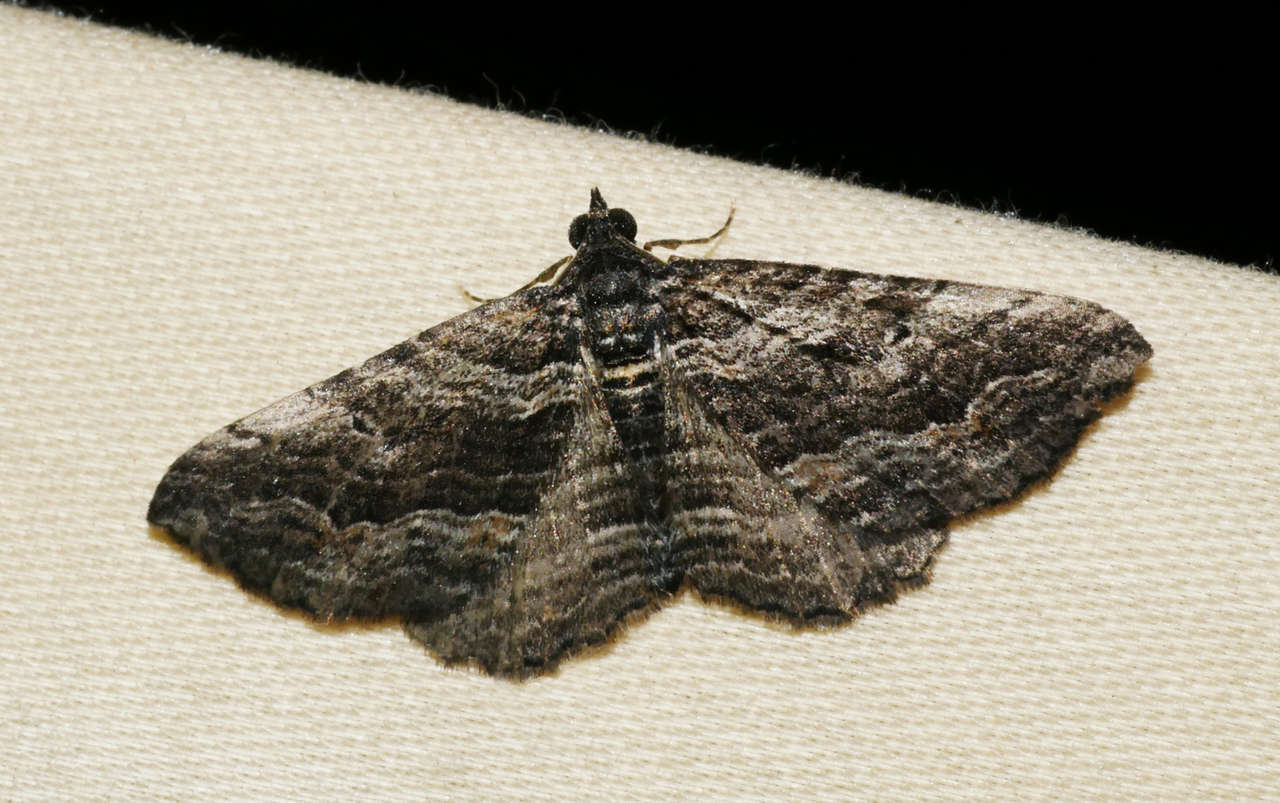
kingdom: Animalia
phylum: Arthropoda
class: Insecta
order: Lepidoptera
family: Geometridae
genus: Chrysolarentia
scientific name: Chrysolarentia severata
